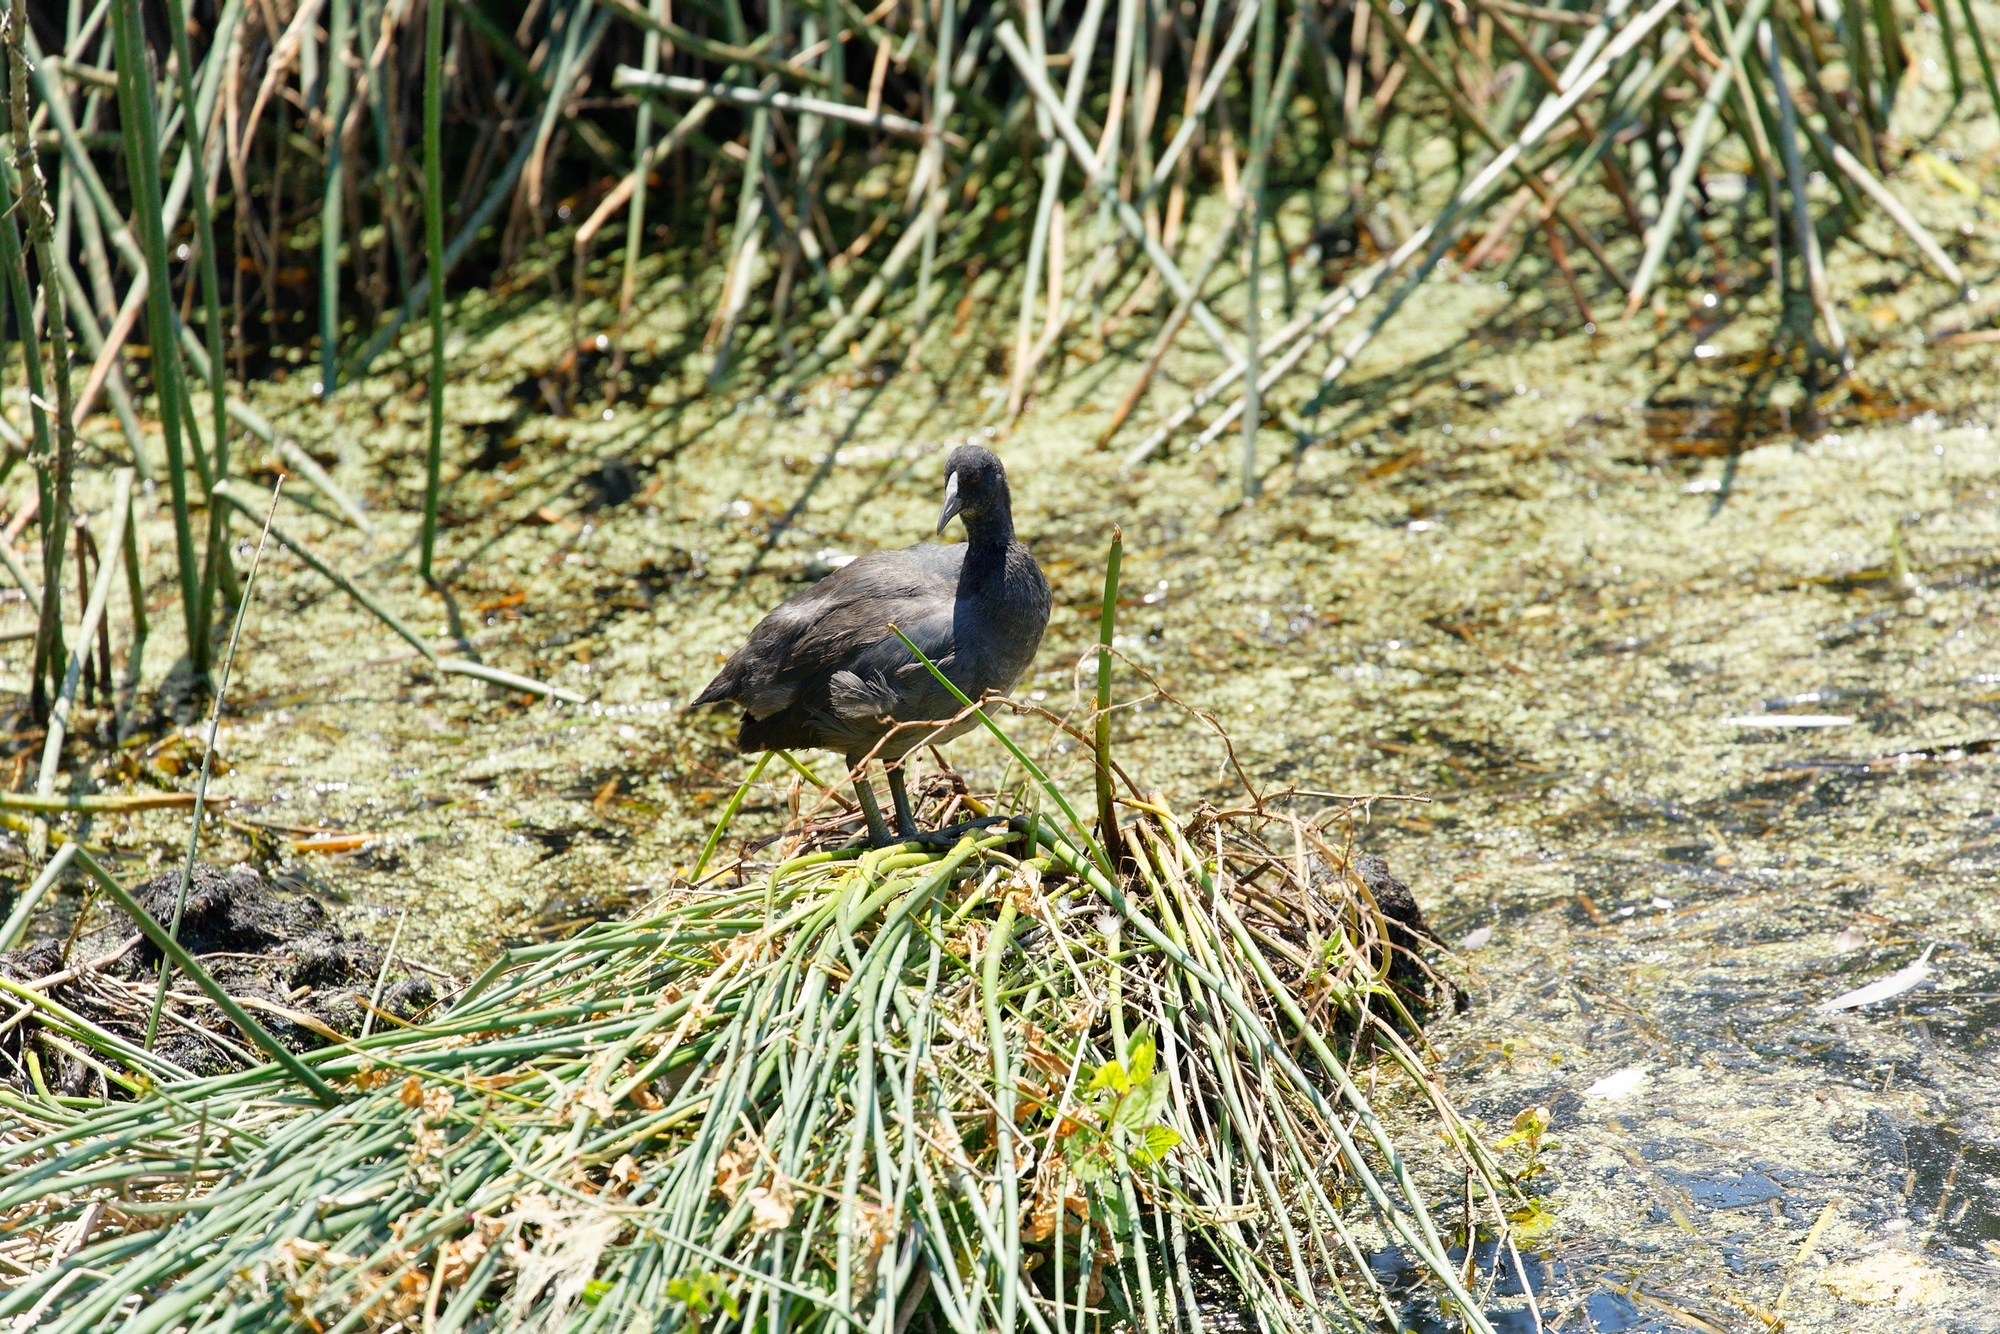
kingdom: Animalia
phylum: Chordata
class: Aves
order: Gruiformes
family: Rallidae
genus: Fulica
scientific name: Fulica atra
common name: Eurasian coot
